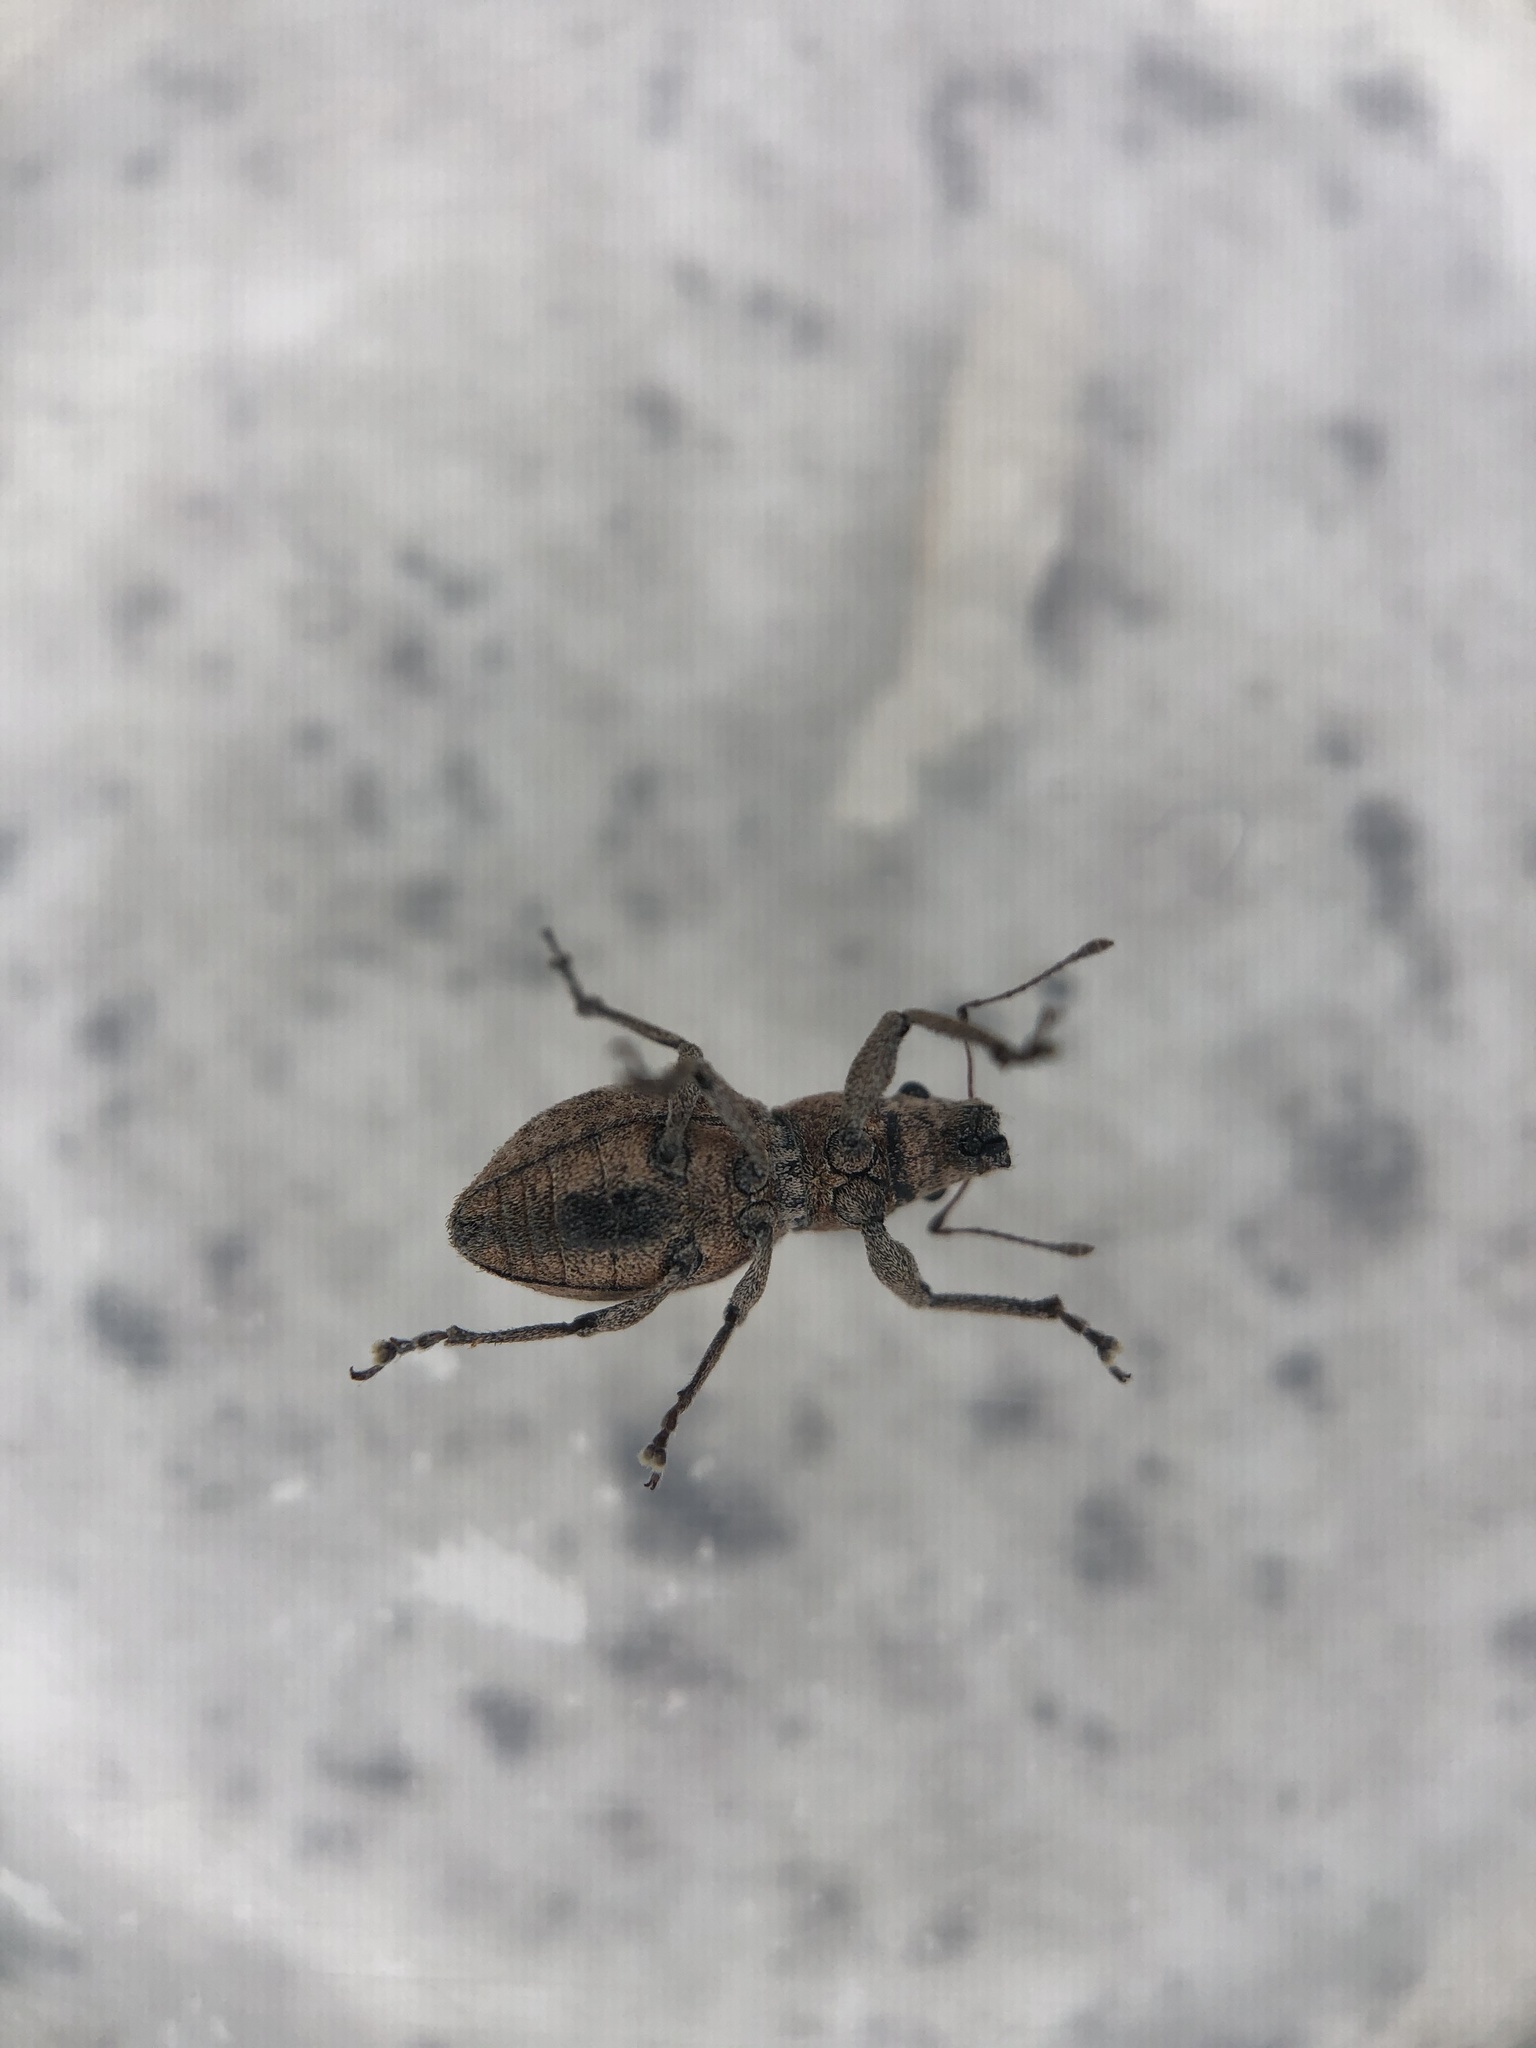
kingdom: Animalia
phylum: Arthropoda
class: Insecta
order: Coleoptera
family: Curculionidae
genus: Naupactus
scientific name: Naupactus cervinus
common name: Fuller rose beetle
